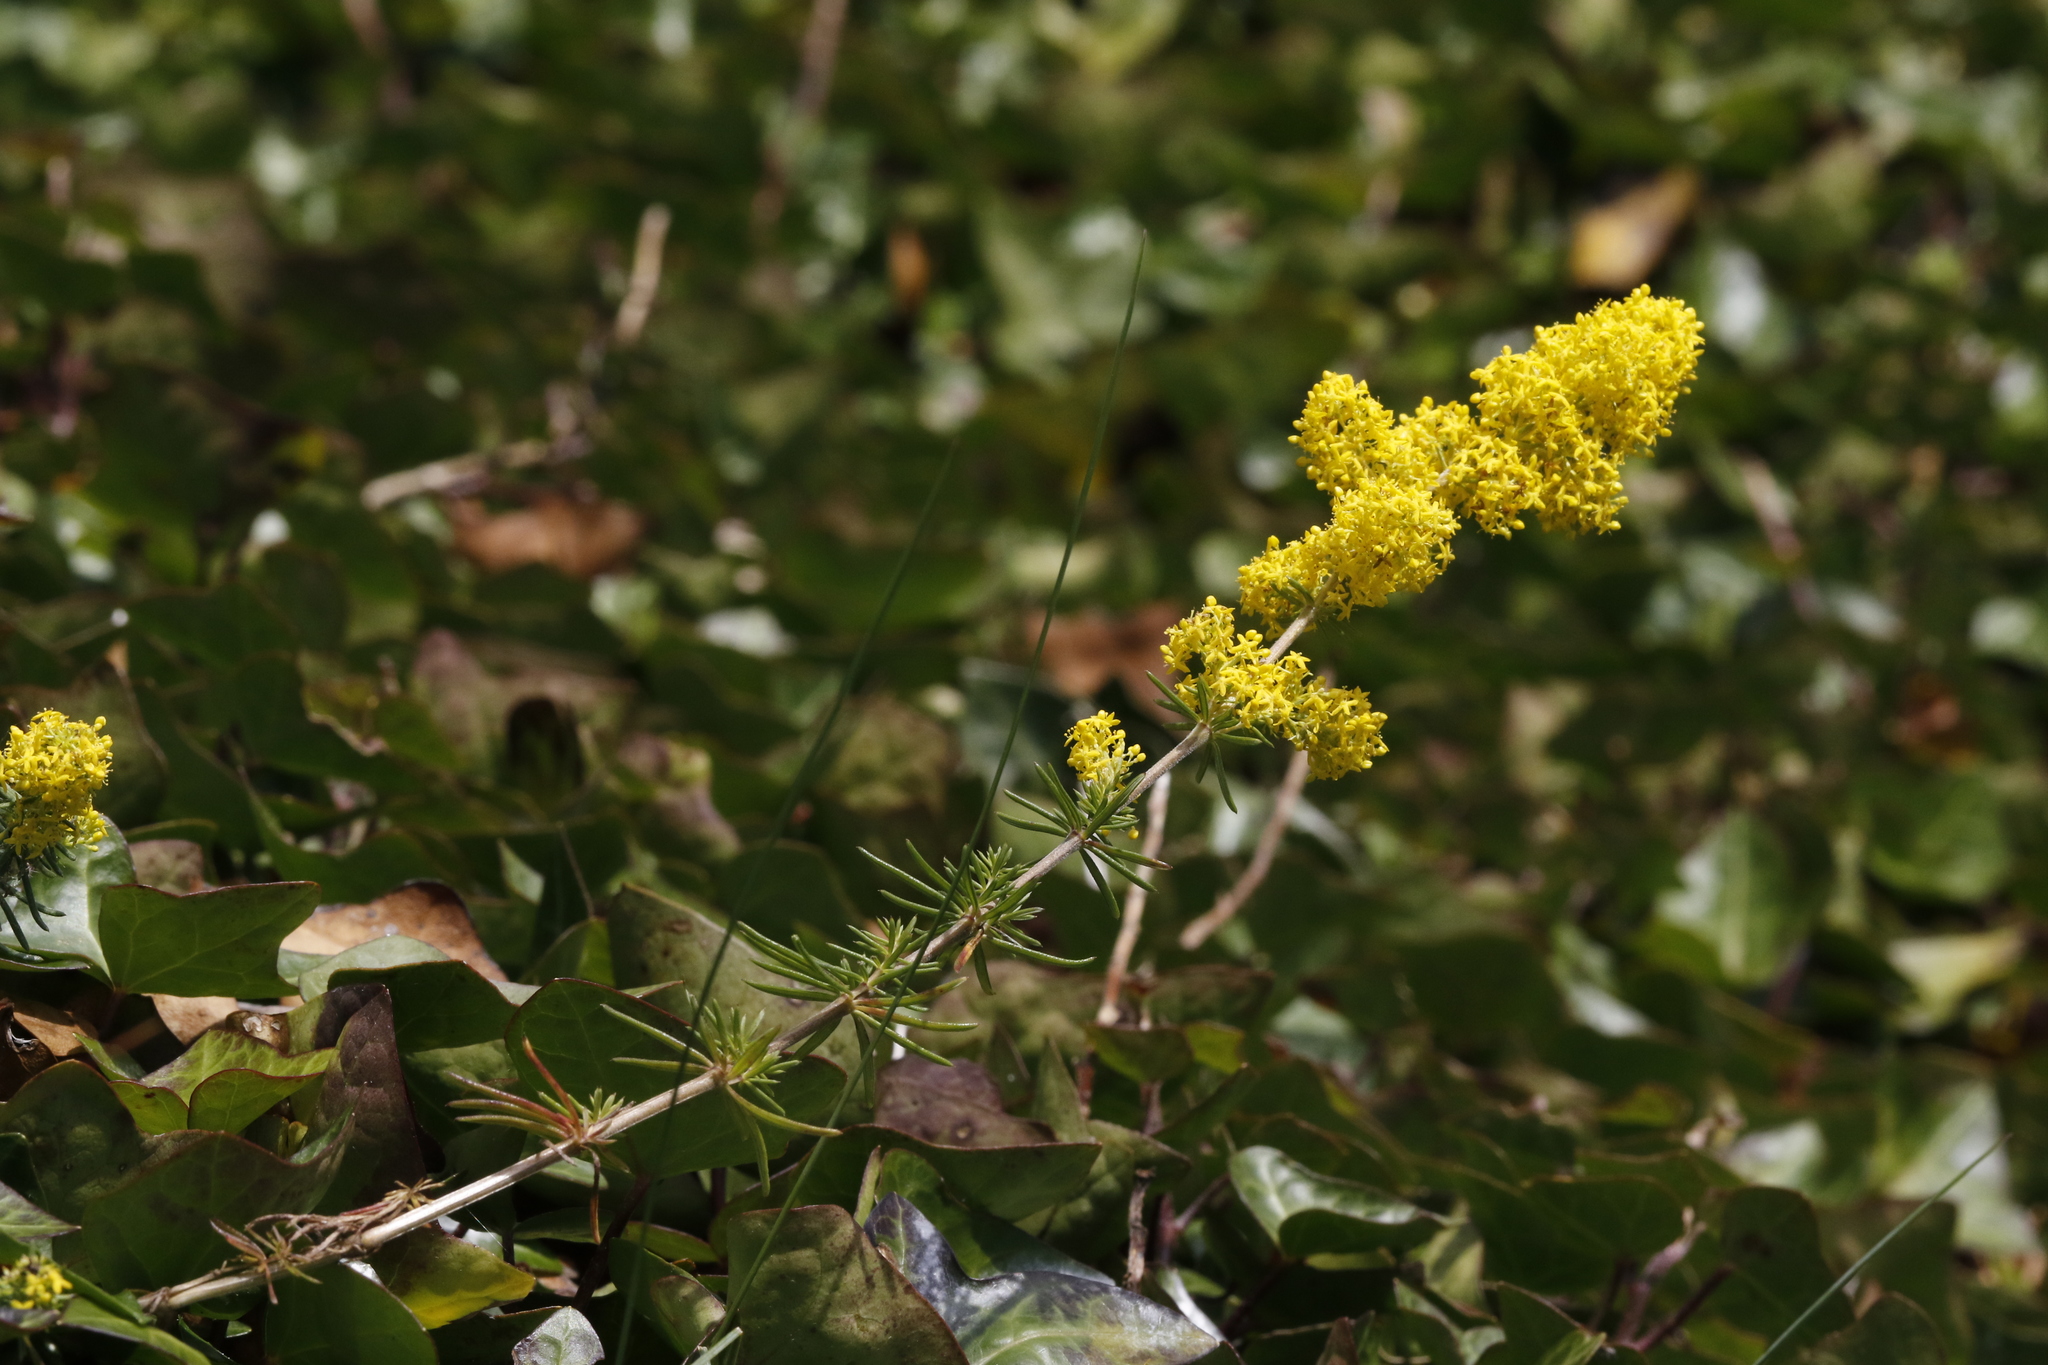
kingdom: Plantae
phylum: Tracheophyta
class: Magnoliopsida
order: Gentianales
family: Rubiaceae
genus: Galium
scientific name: Galium verum
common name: Lady's bedstraw
